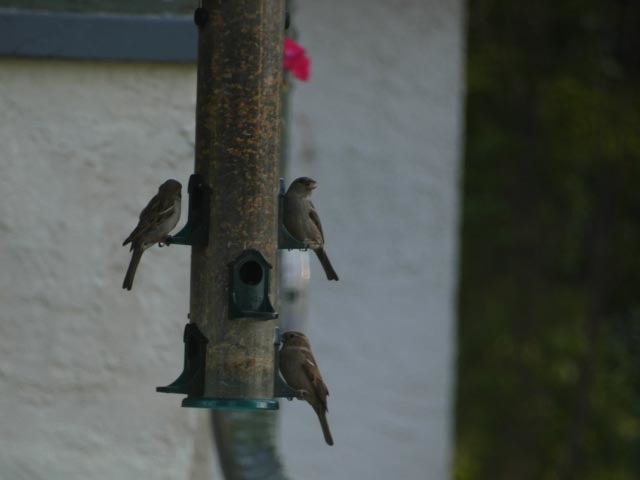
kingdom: Animalia
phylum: Chordata
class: Aves
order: Passeriformes
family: Passeridae
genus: Passer
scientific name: Passer domesticus
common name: House sparrow
